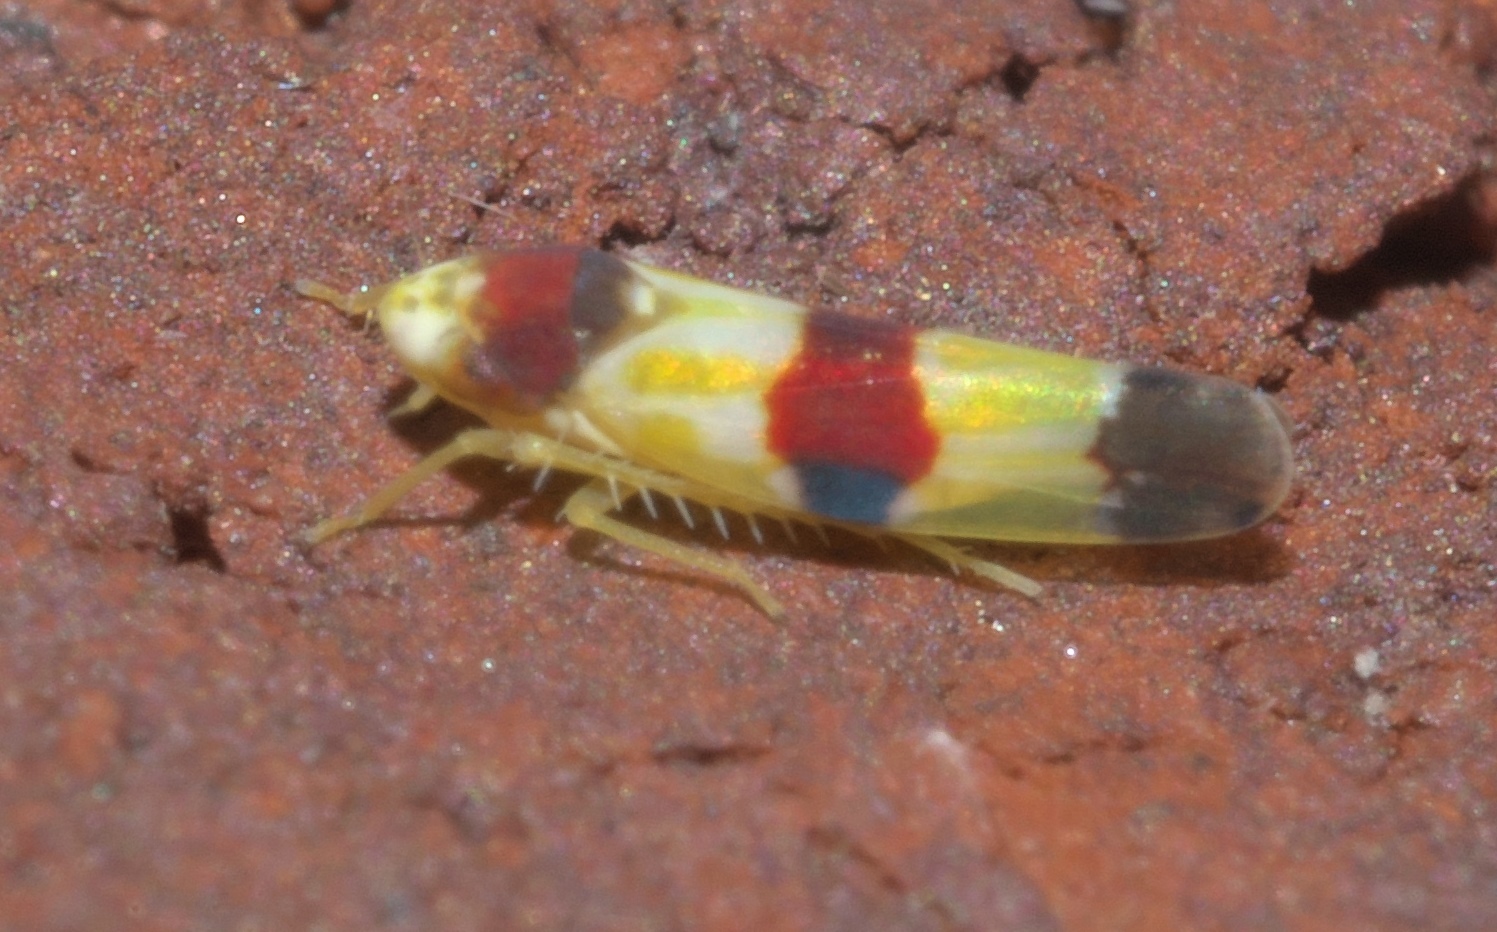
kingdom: Animalia
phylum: Arthropoda
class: Insecta
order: Hemiptera
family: Cicadellidae
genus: Erythroneura
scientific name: Erythroneura diva
